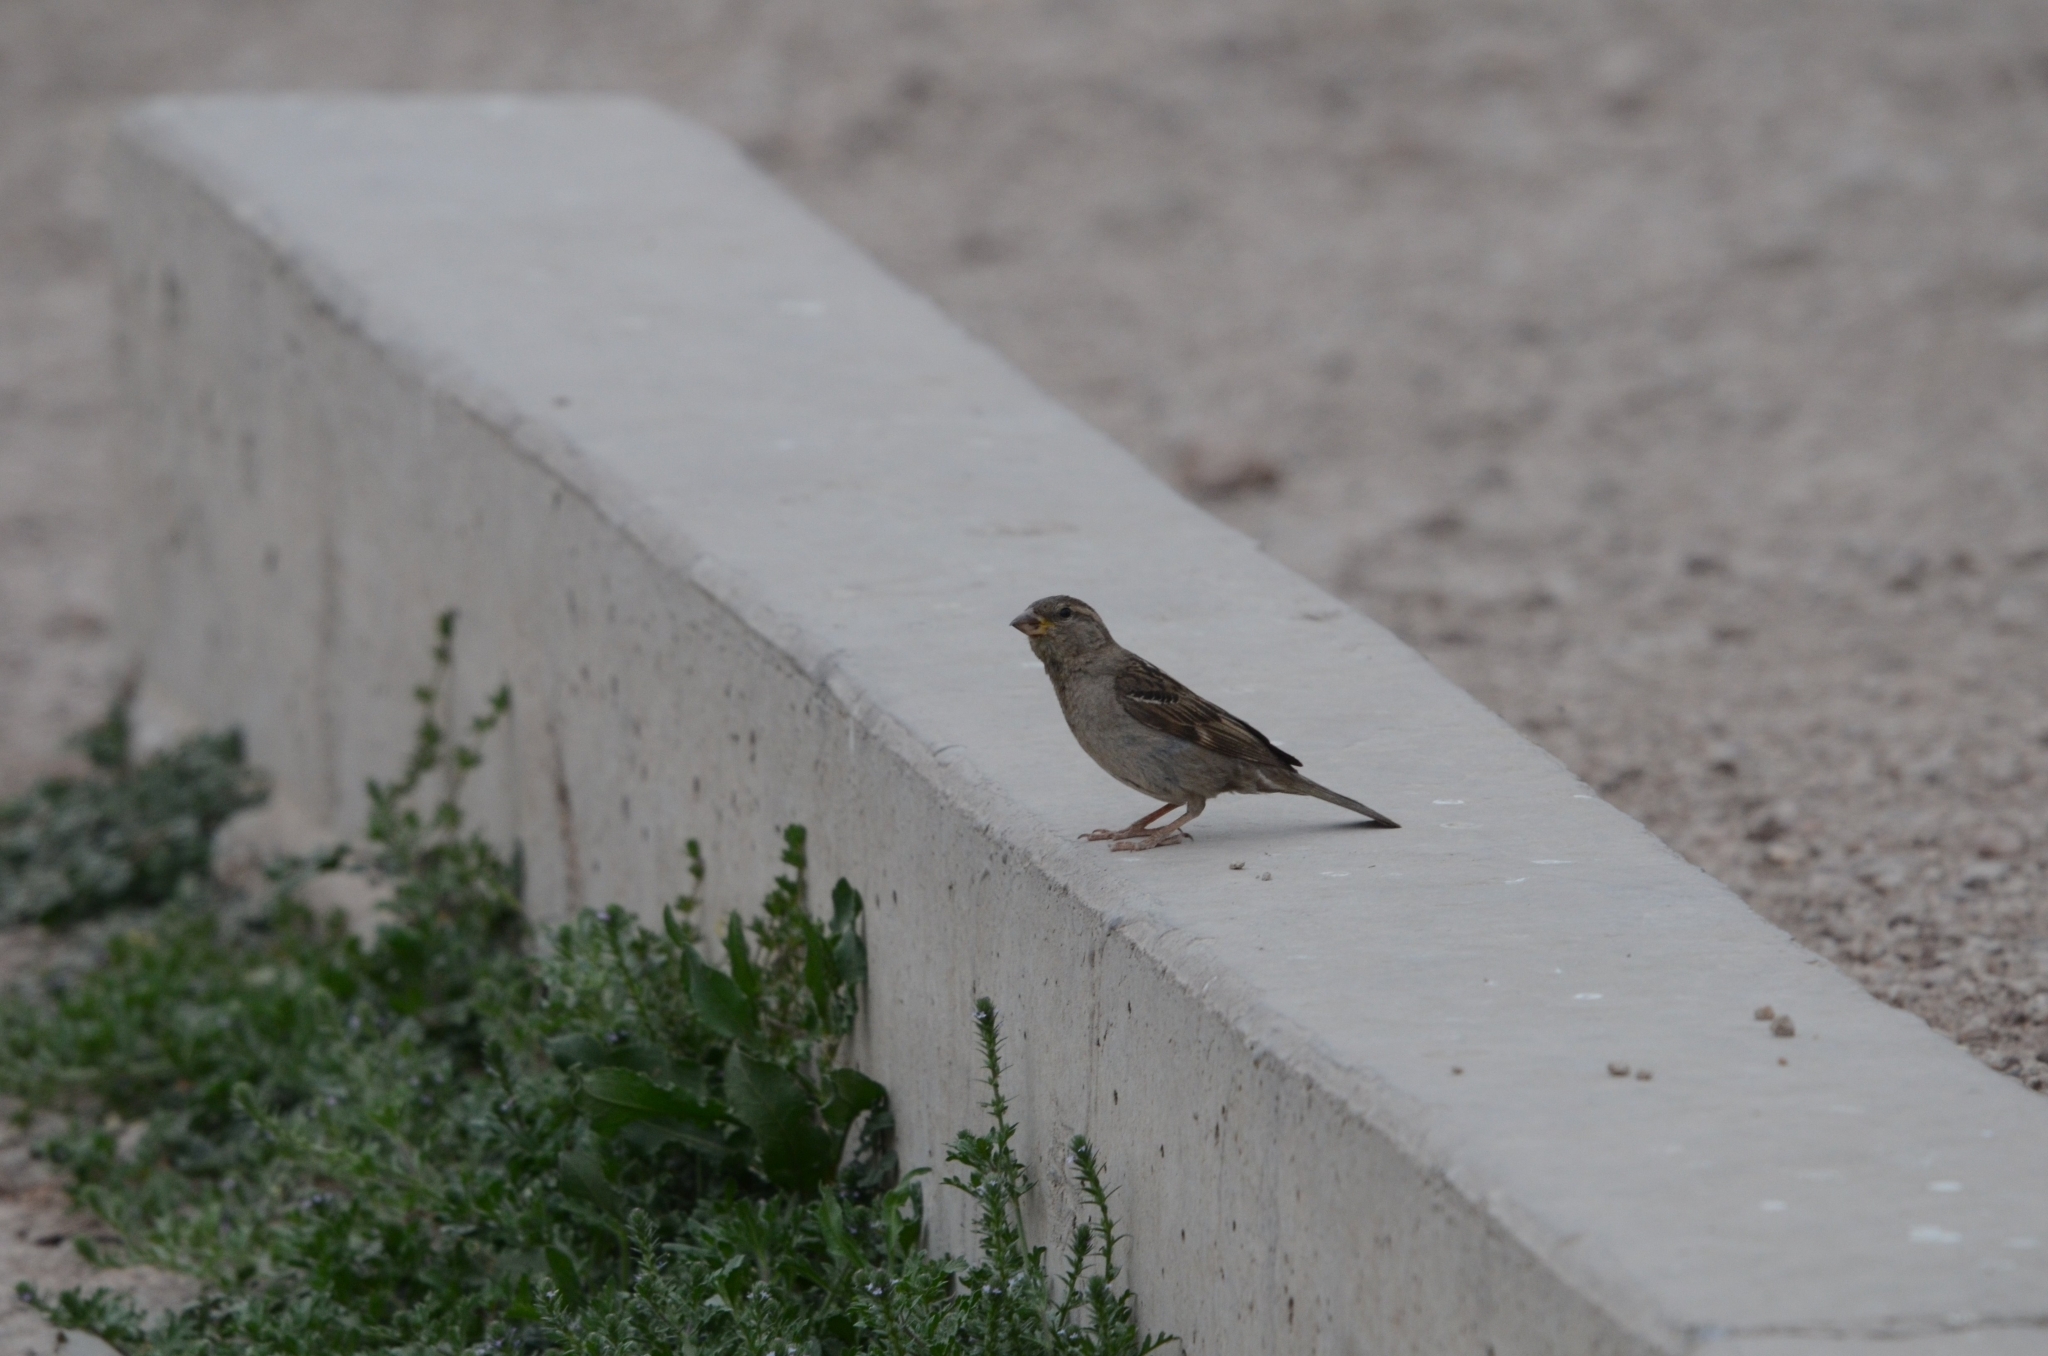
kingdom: Animalia
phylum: Chordata
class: Aves
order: Passeriformes
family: Passeridae
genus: Passer
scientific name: Passer domesticus
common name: House sparrow
